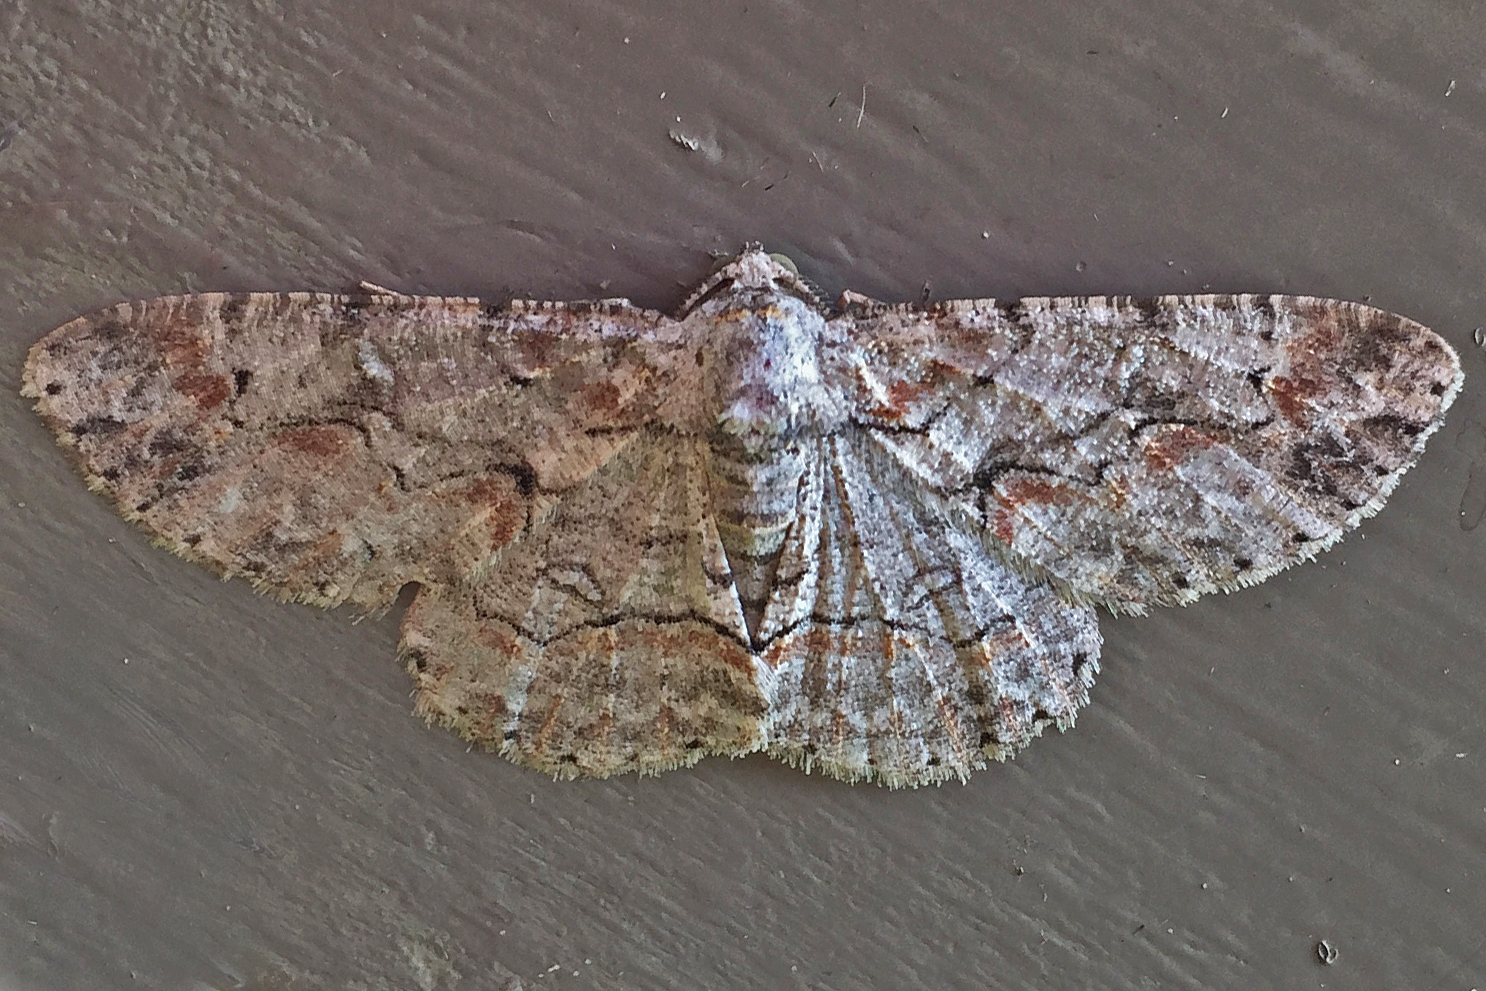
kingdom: Animalia
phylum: Arthropoda
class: Insecta
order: Lepidoptera
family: Geometridae
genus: Iridopsis
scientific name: Iridopsis defectaria
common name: Brown-shaded gray
